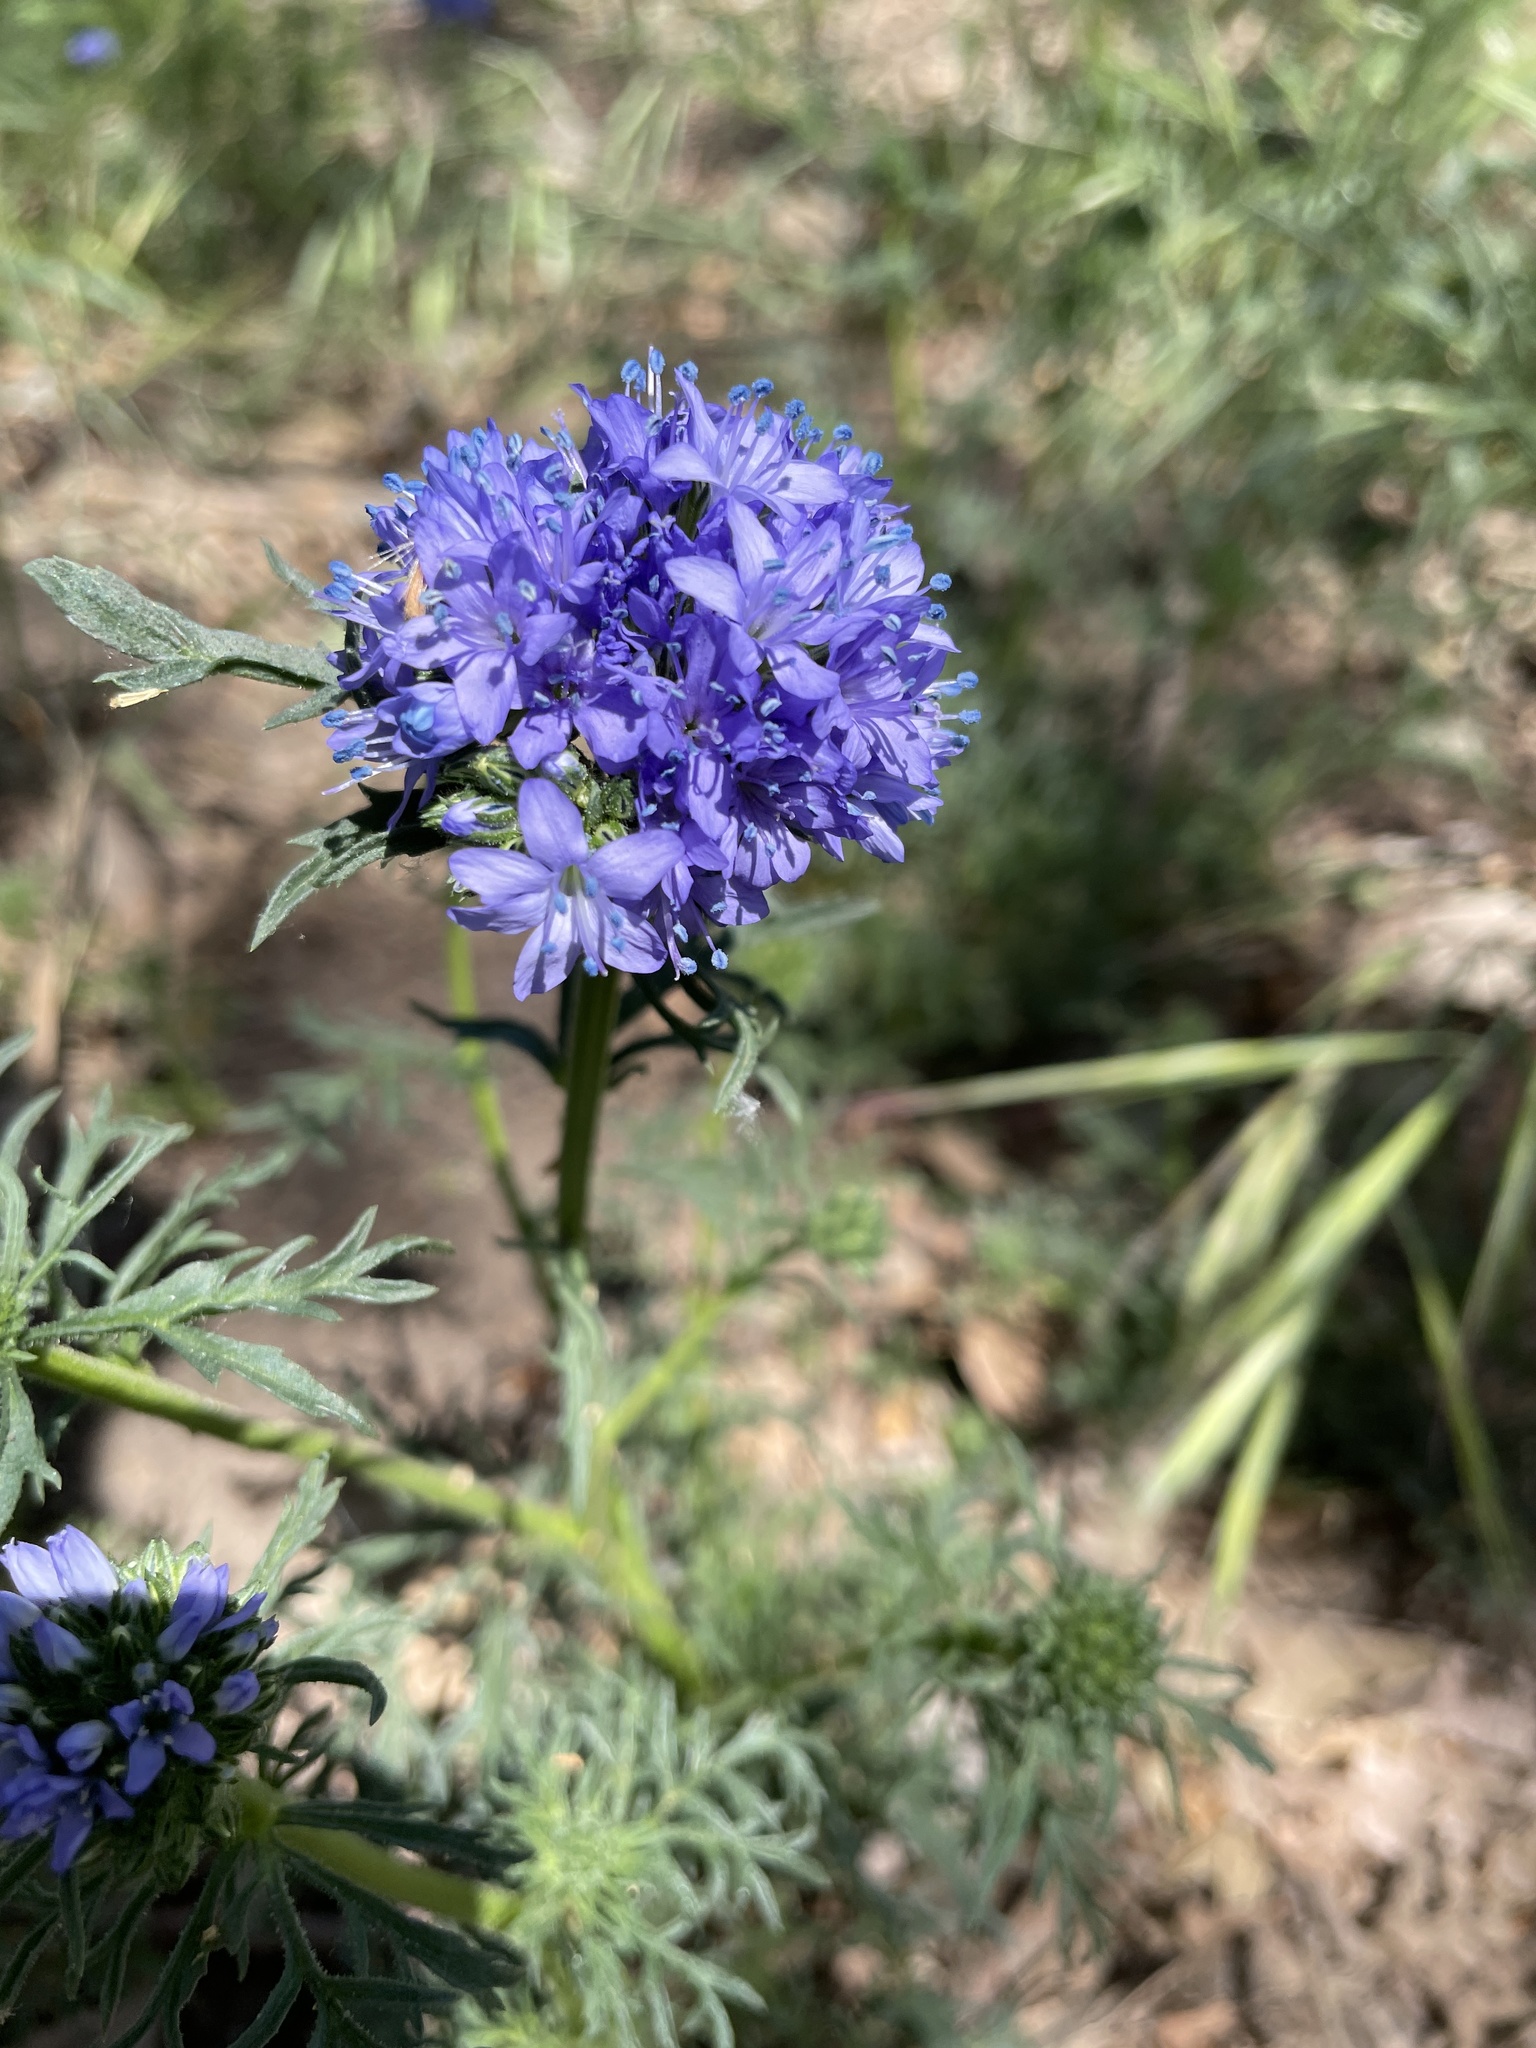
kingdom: Plantae
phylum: Tracheophyta
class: Magnoliopsida
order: Ericales
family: Polemoniaceae
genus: Gilia
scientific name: Gilia capitata
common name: Bluehead gilia
